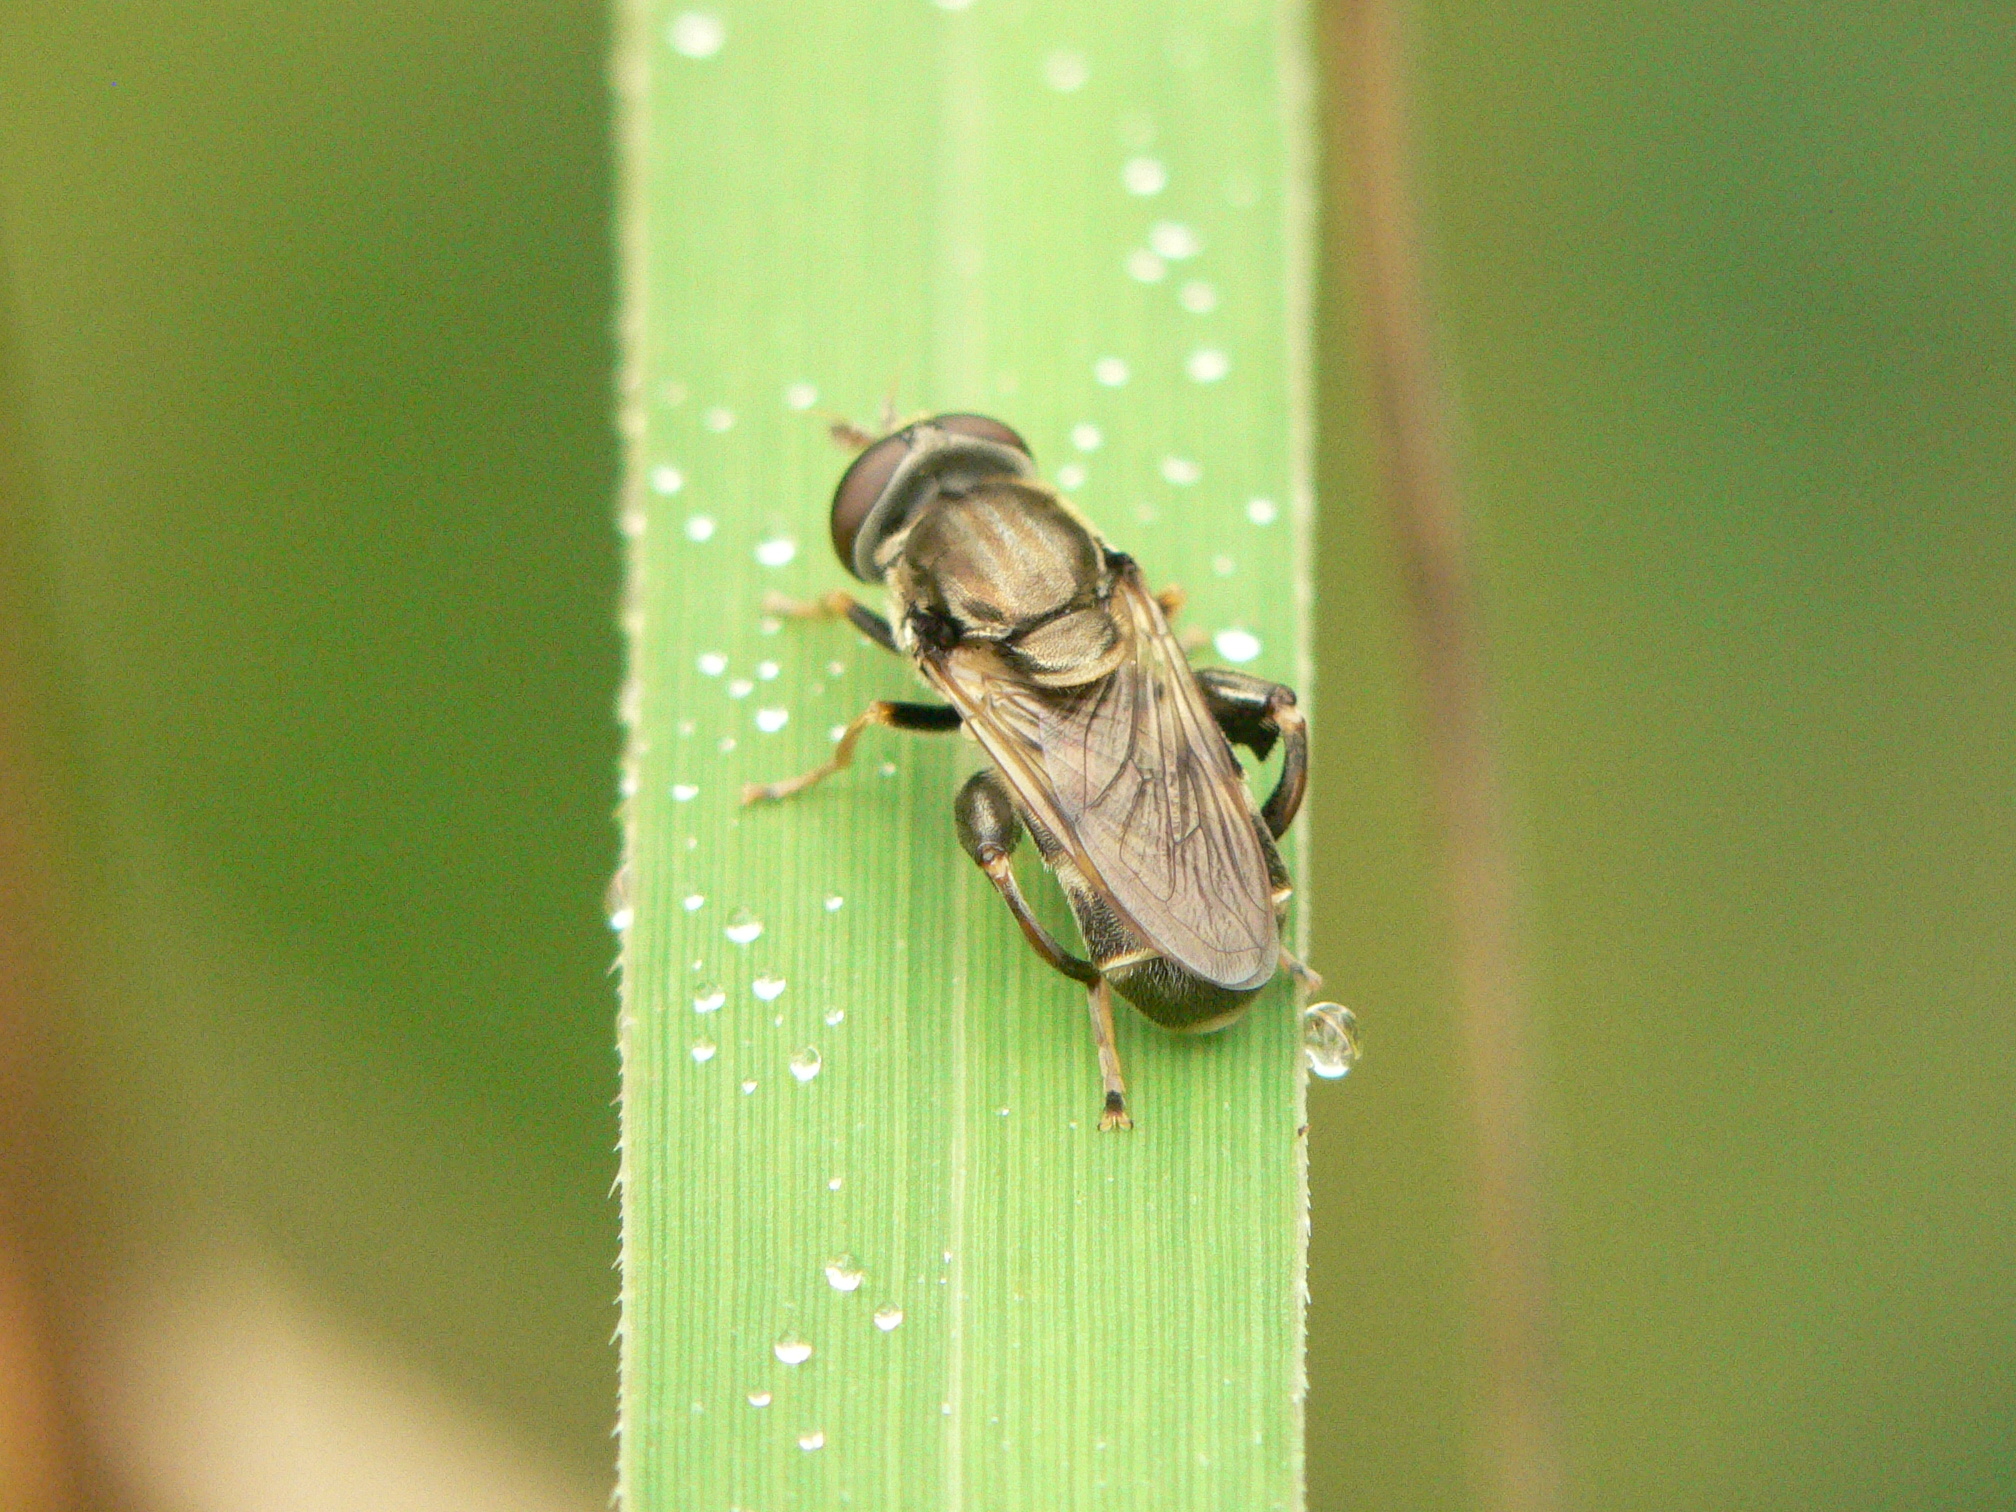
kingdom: Animalia
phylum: Arthropoda
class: Insecta
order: Diptera
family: Syrphidae
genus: Tropidia
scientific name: Tropidia mamillata
